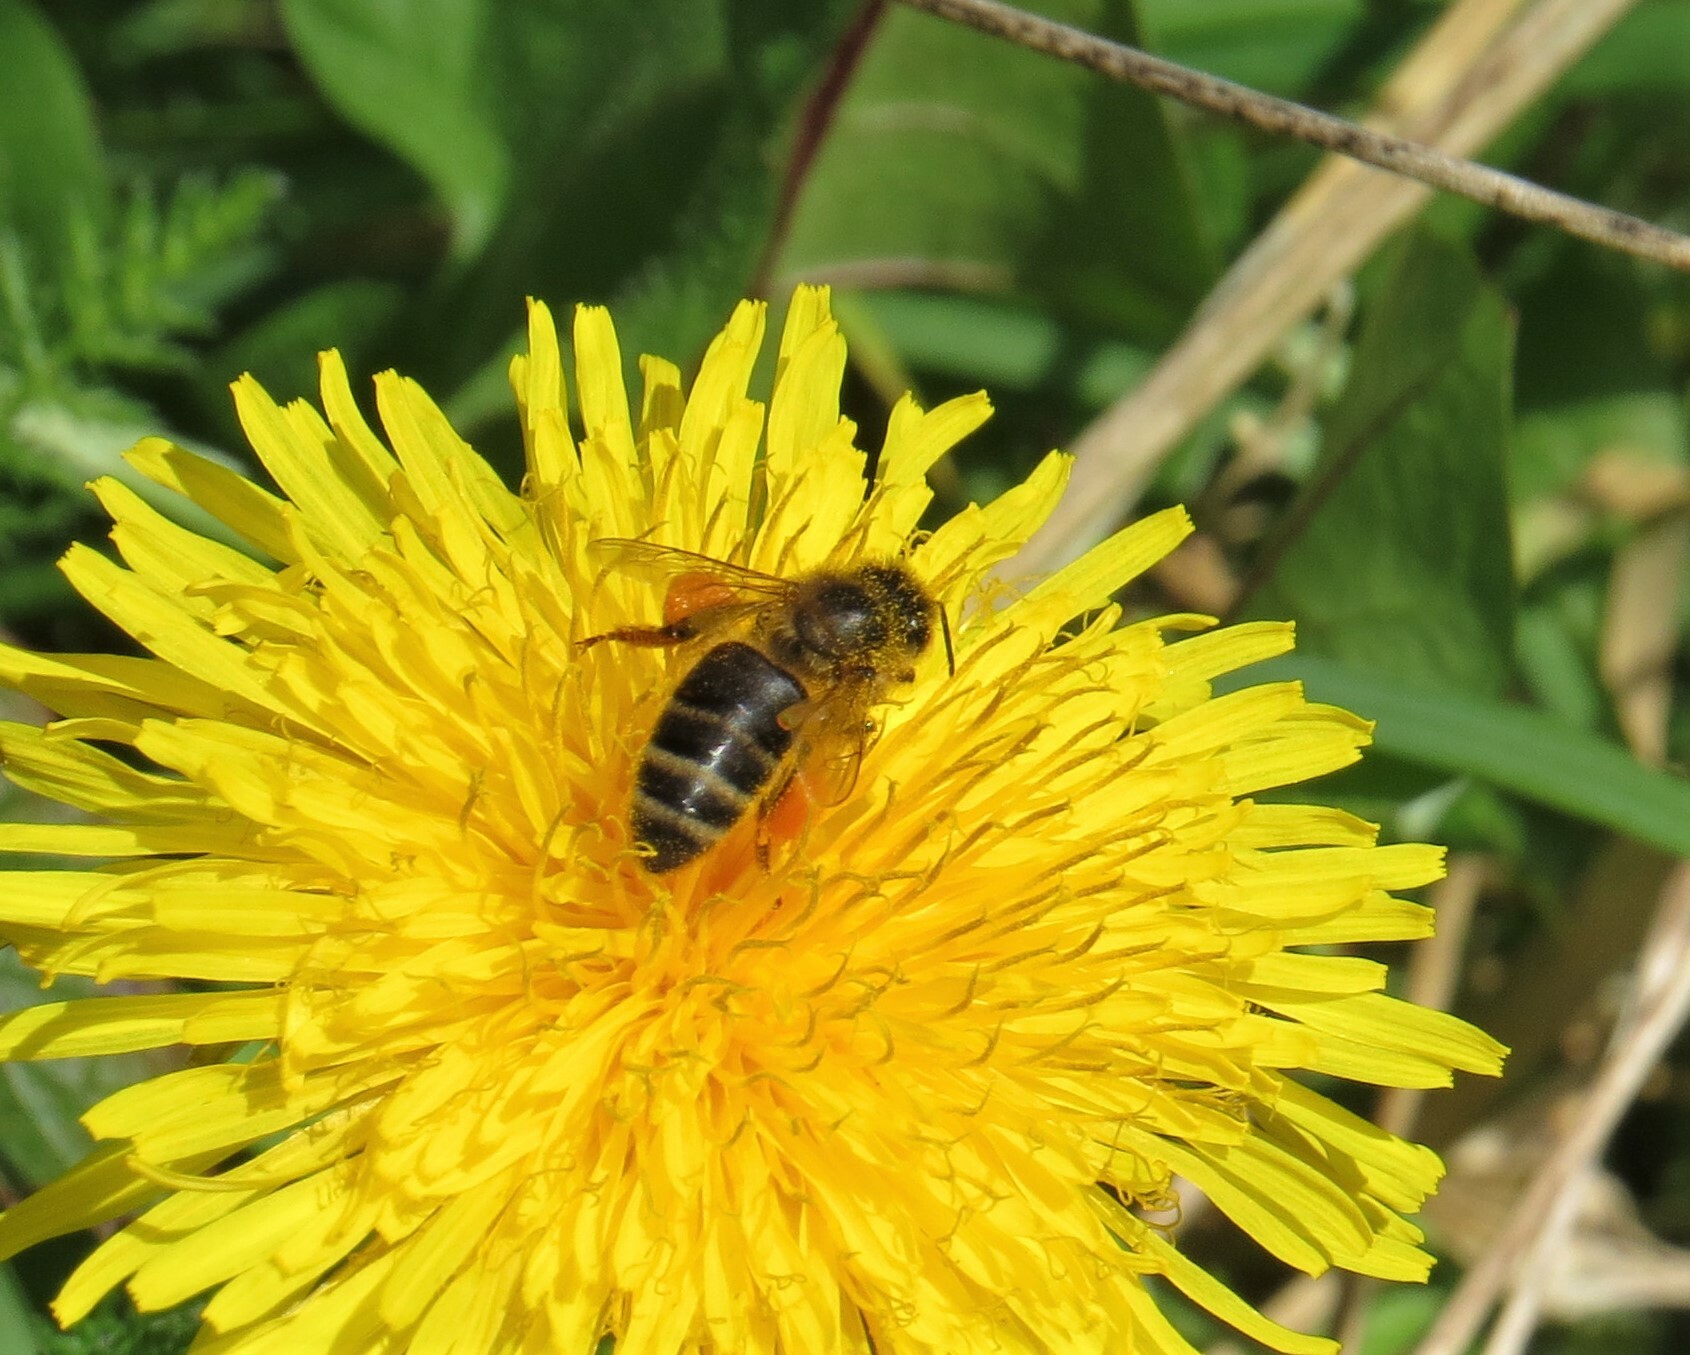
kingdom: Animalia
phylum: Arthropoda
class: Insecta
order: Hymenoptera
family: Apidae
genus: Apis
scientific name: Apis mellifera
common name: Honey bee
